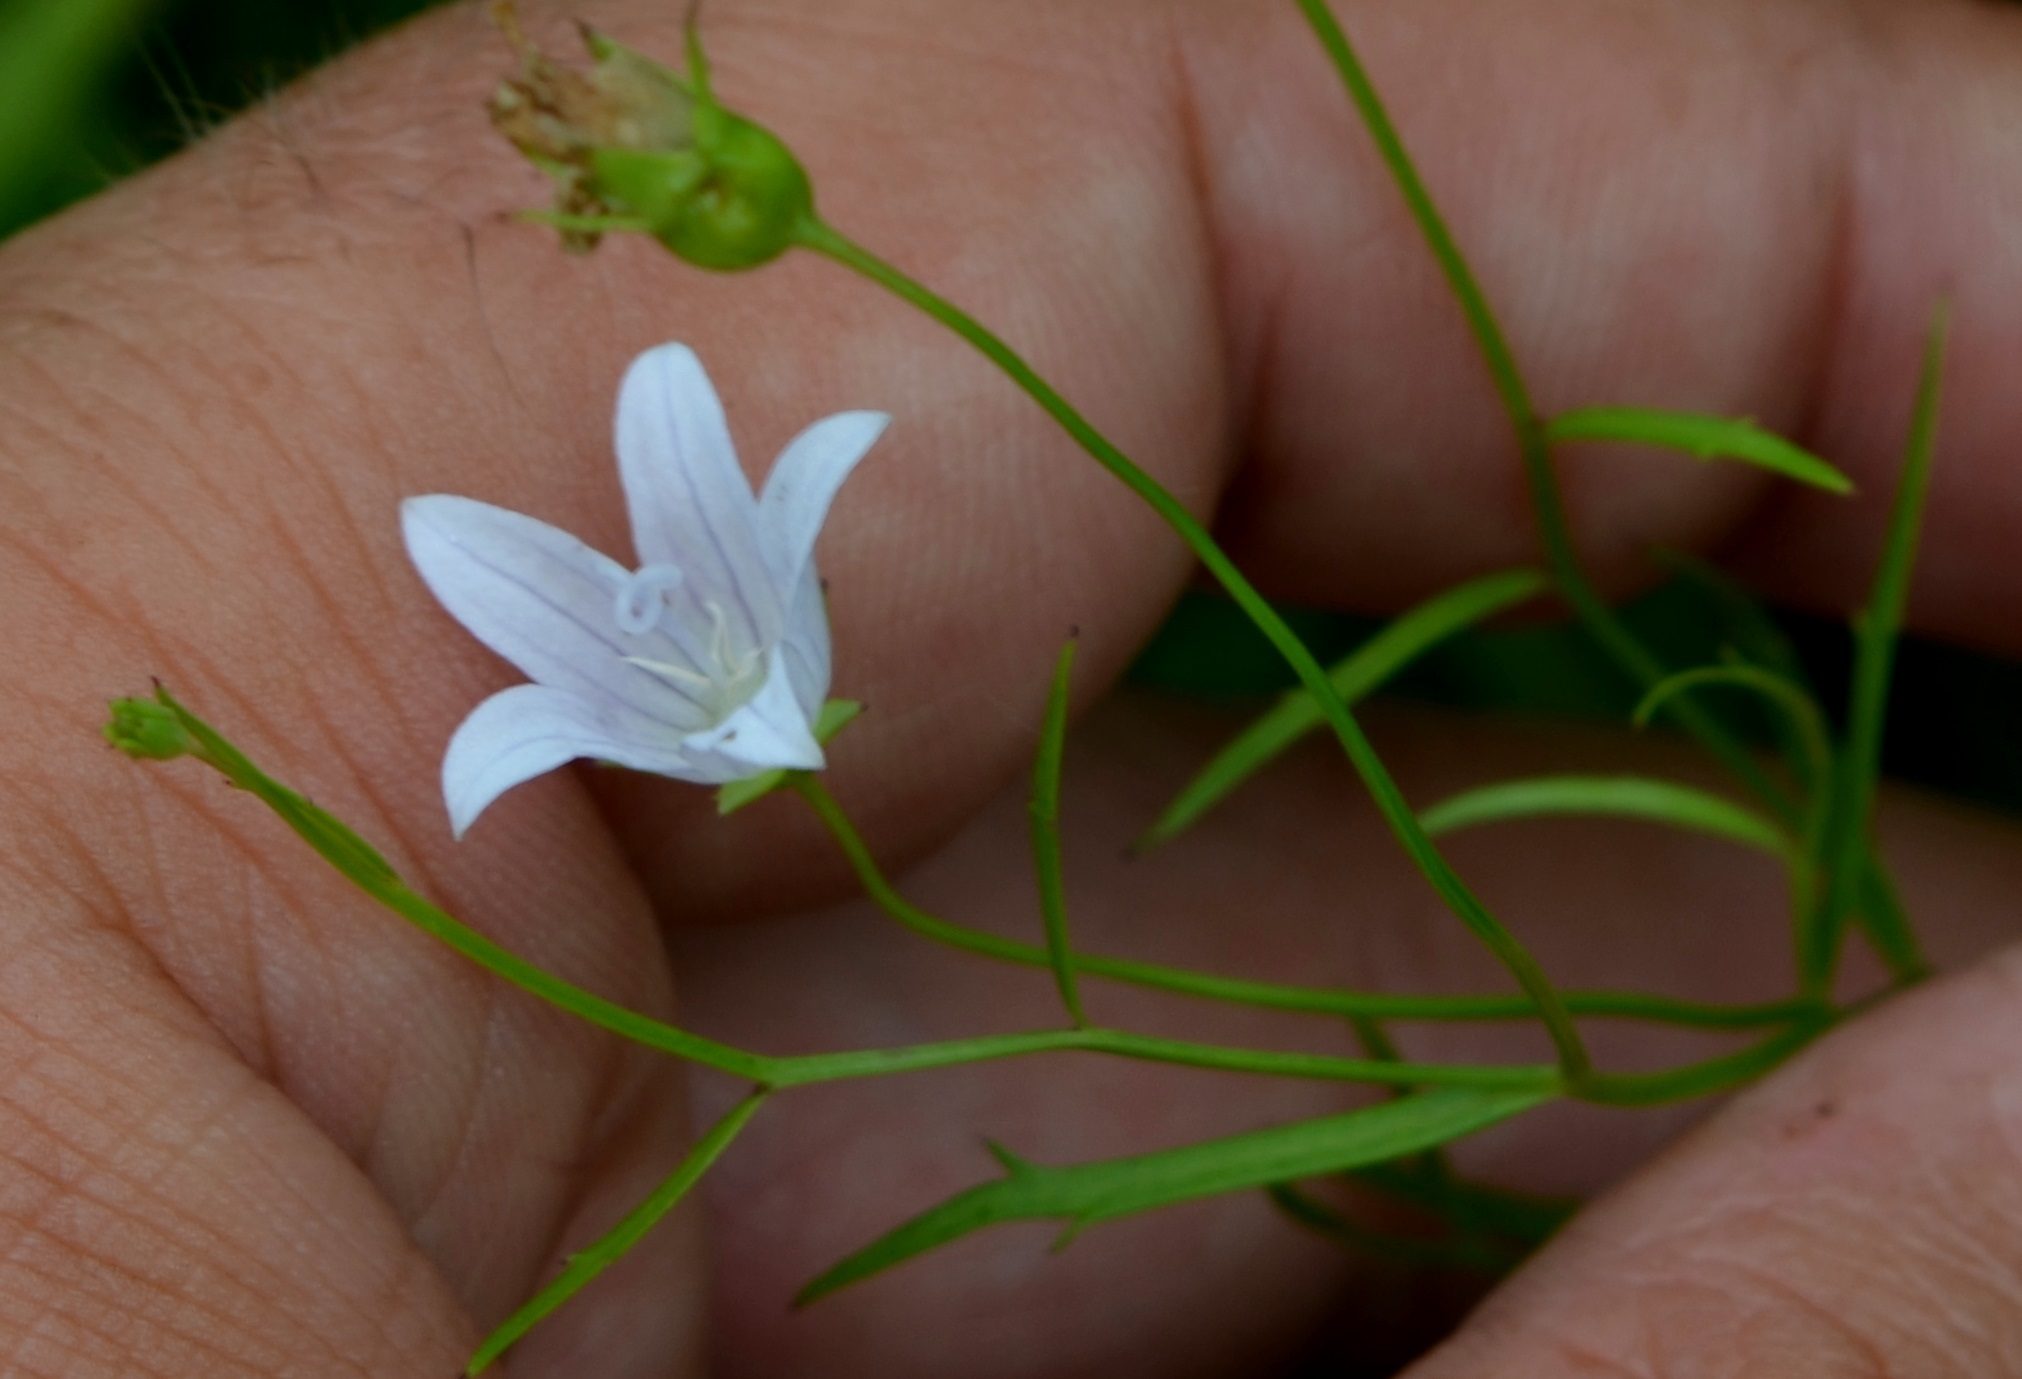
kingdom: Plantae
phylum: Tracheophyta
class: Magnoliopsida
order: Asterales
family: Campanulaceae
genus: Palustricodon
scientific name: Palustricodon aparinoides
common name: Bedstraw bellflower
